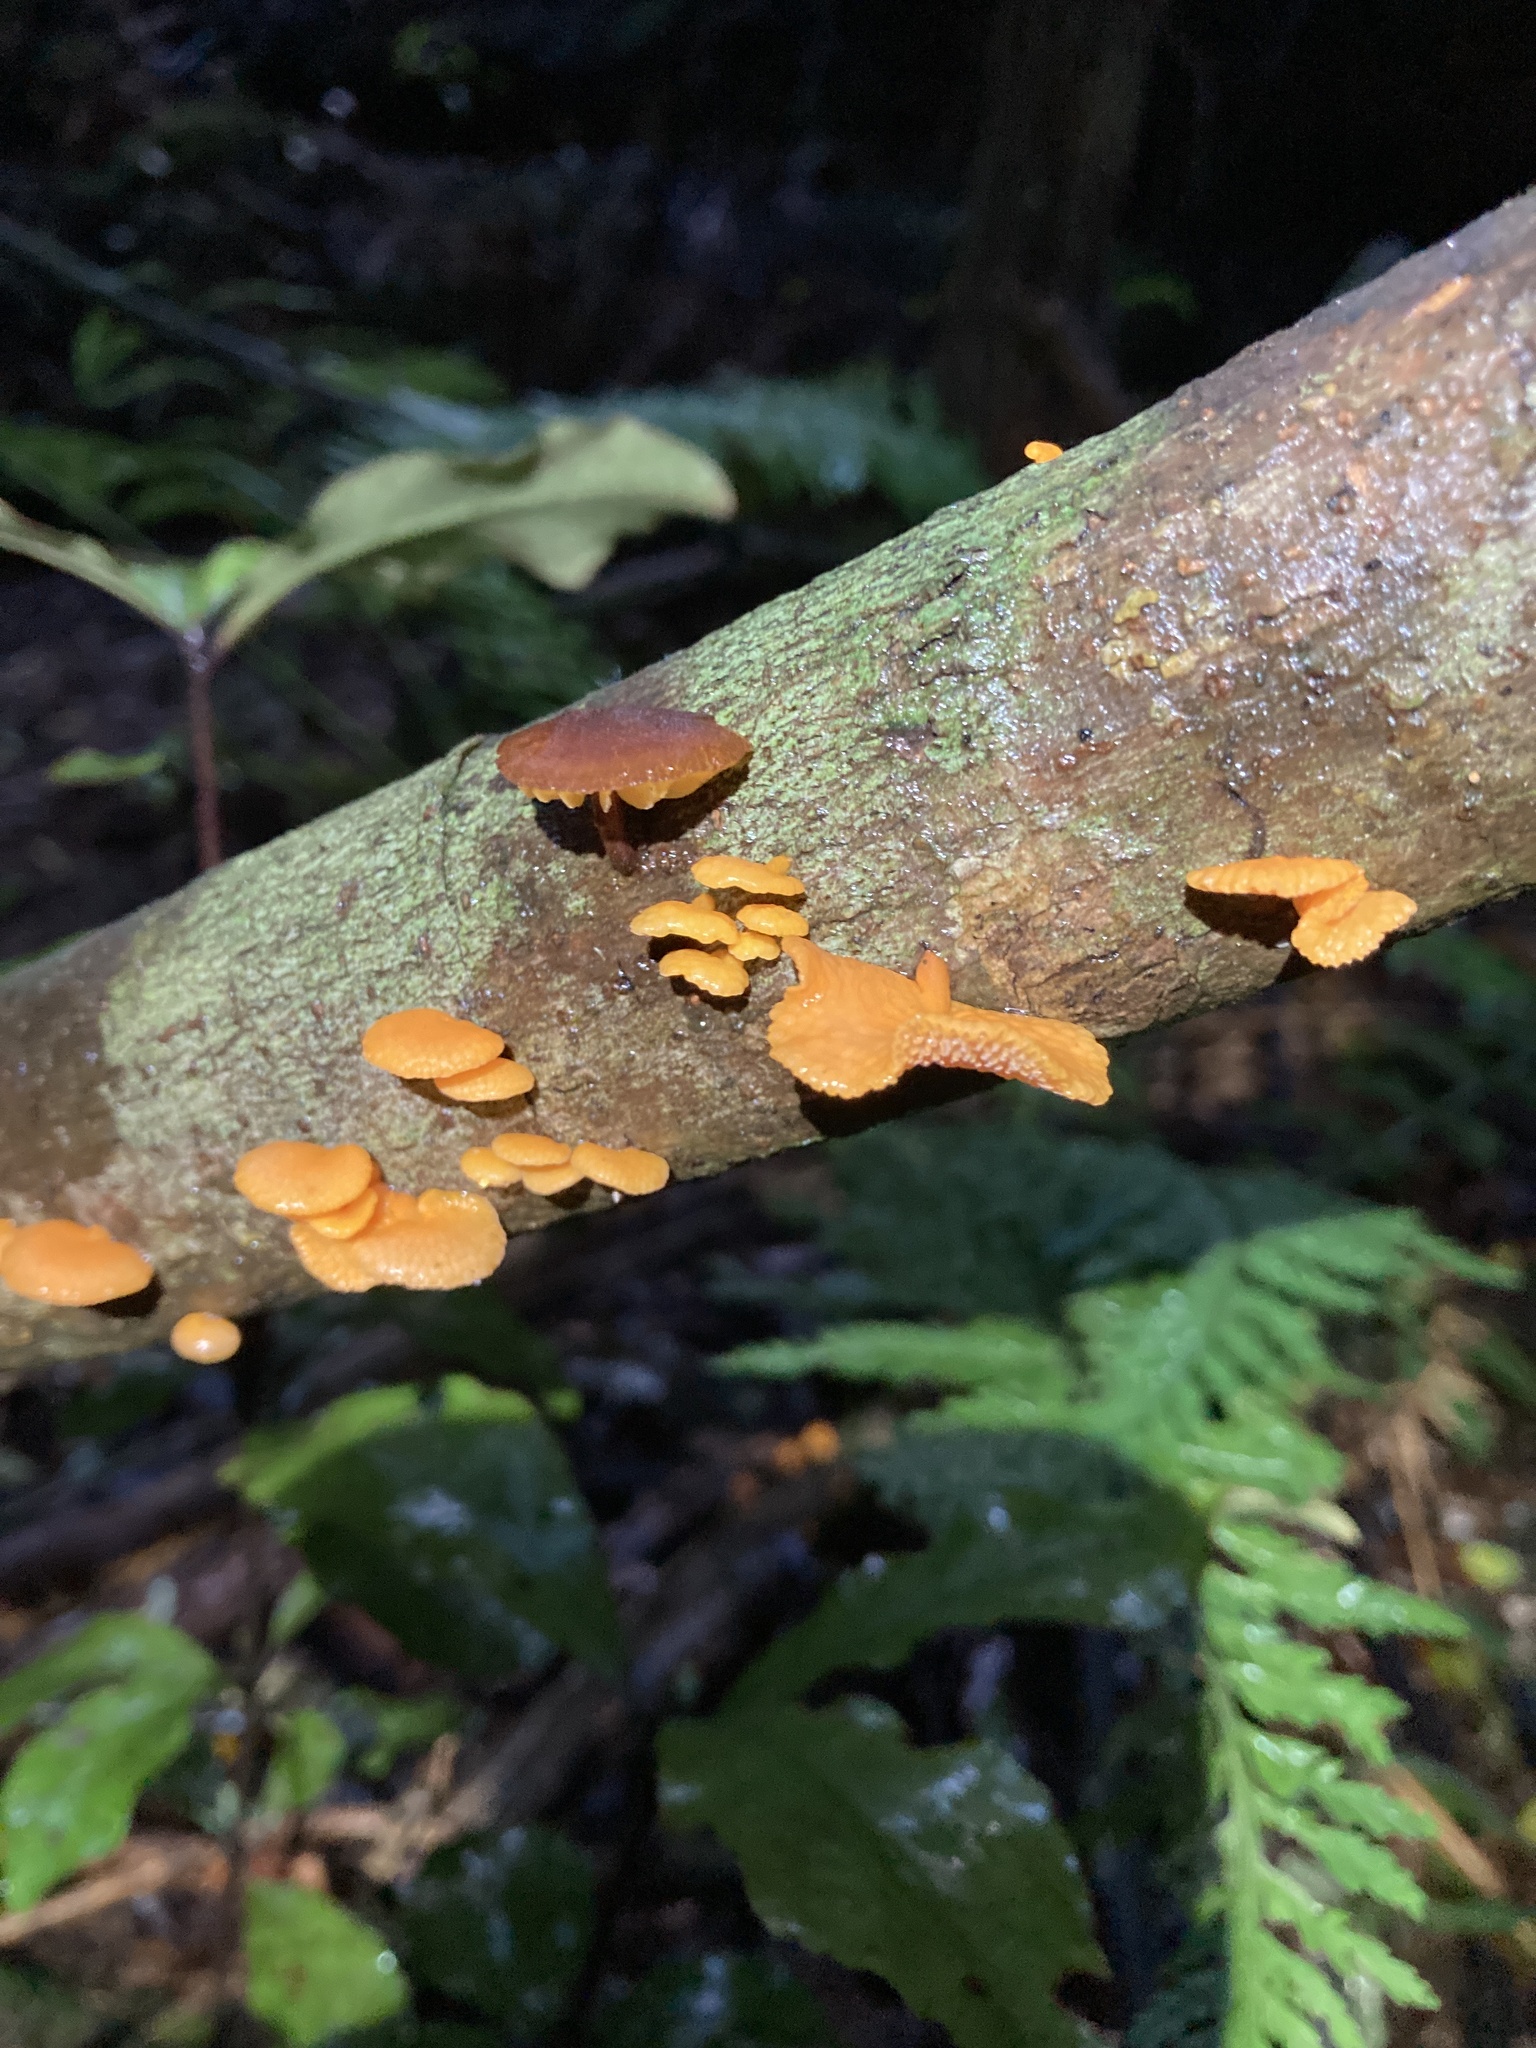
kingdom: Fungi
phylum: Basidiomycota
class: Agaricomycetes
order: Agaricales
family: Mycenaceae
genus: Favolaschia
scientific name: Favolaschia claudopus
